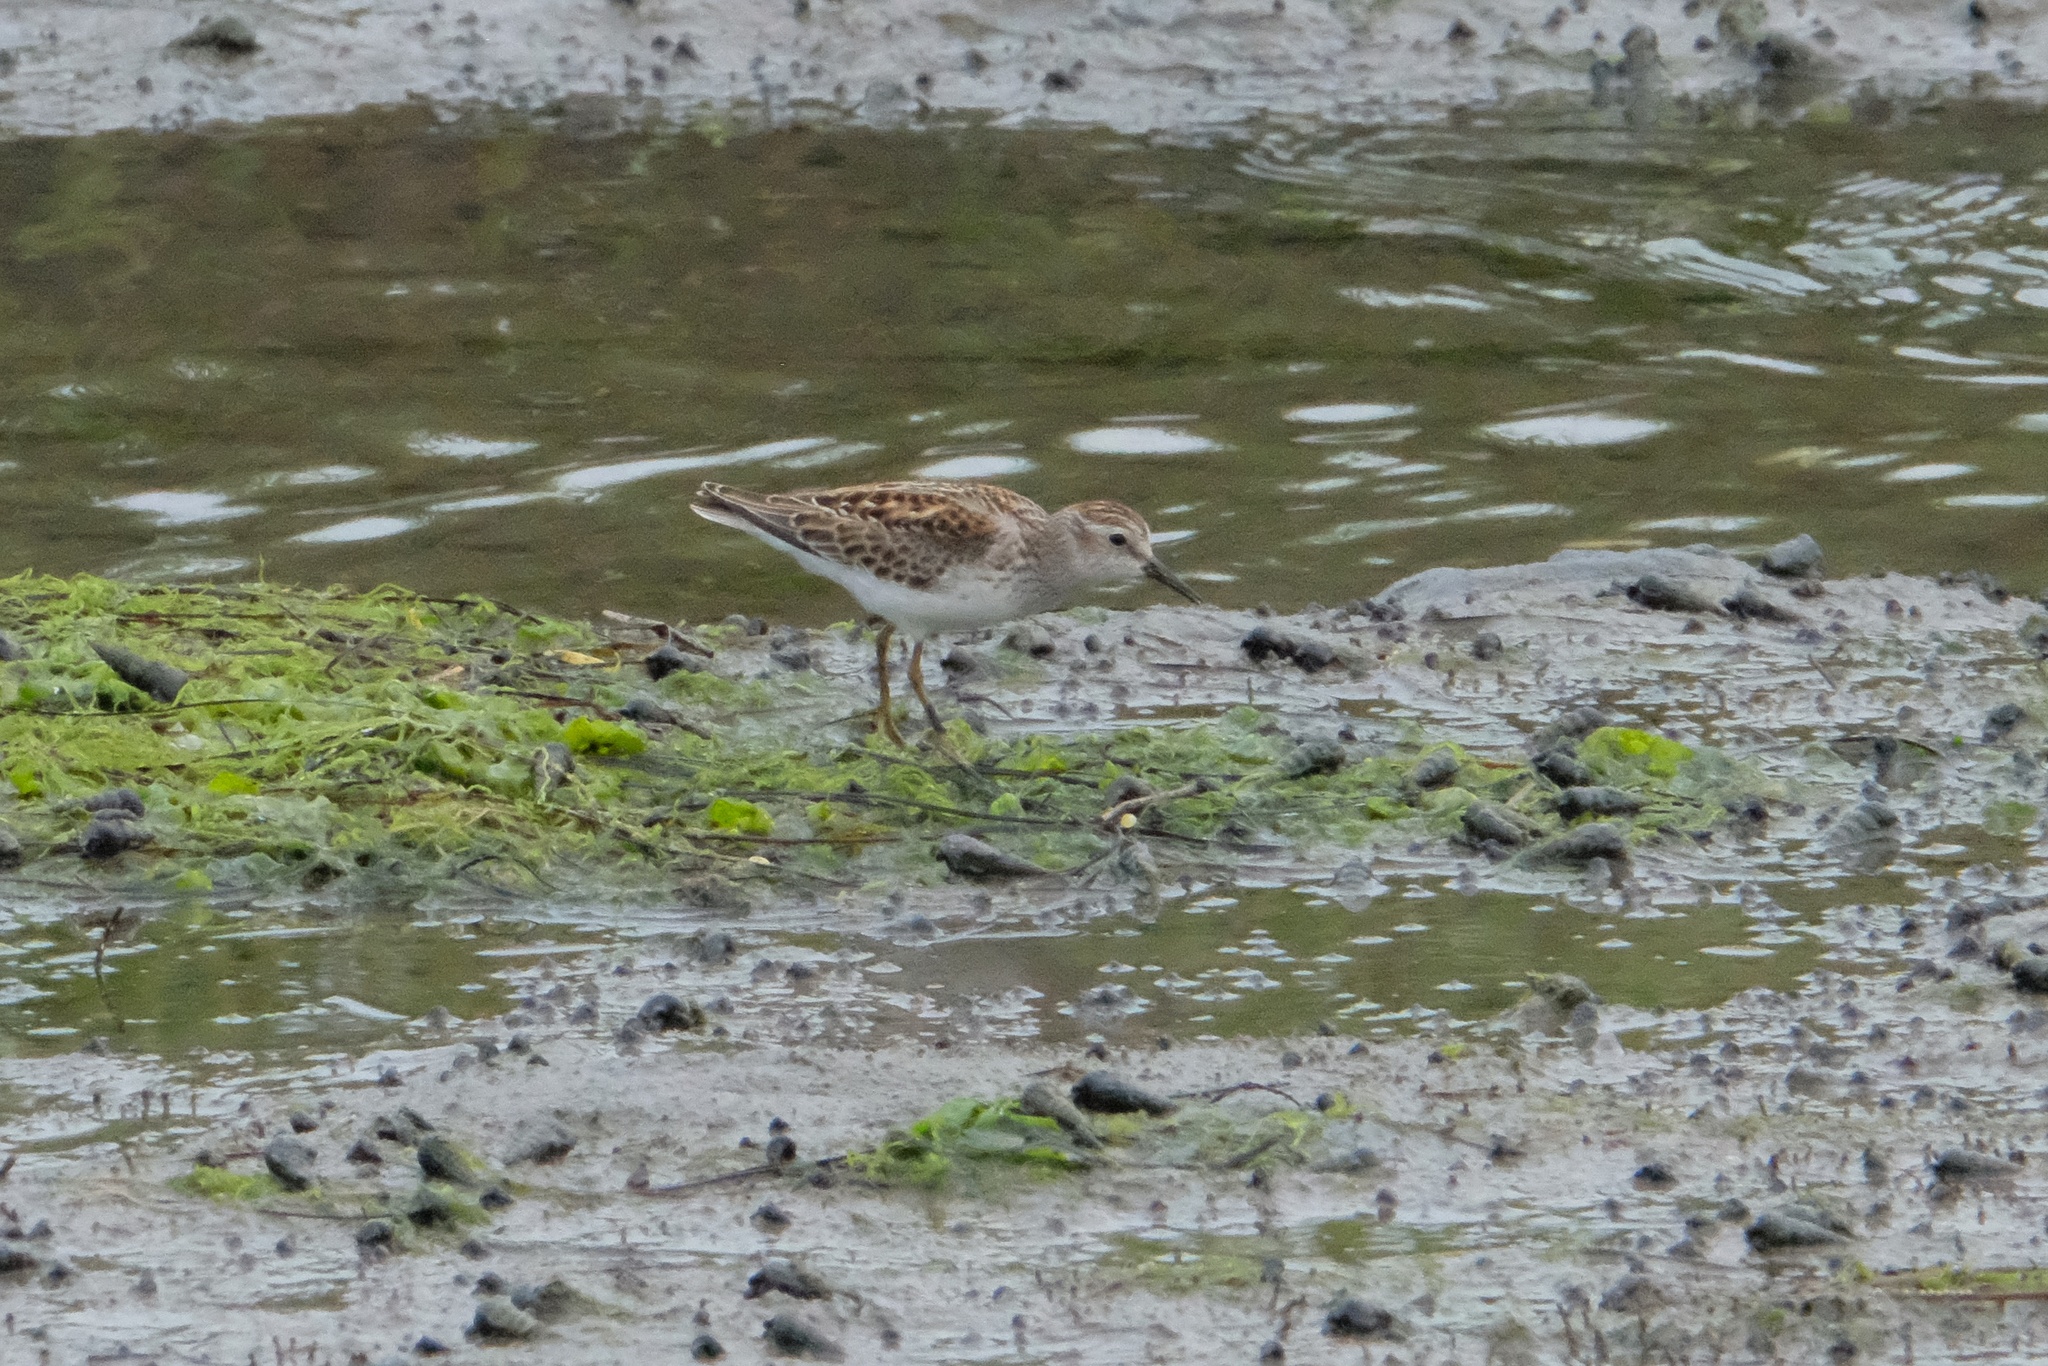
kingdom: Animalia
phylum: Chordata
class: Aves
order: Charadriiformes
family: Scolopacidae
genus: Calidris
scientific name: Calidris minutilla
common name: Least sandpiper
